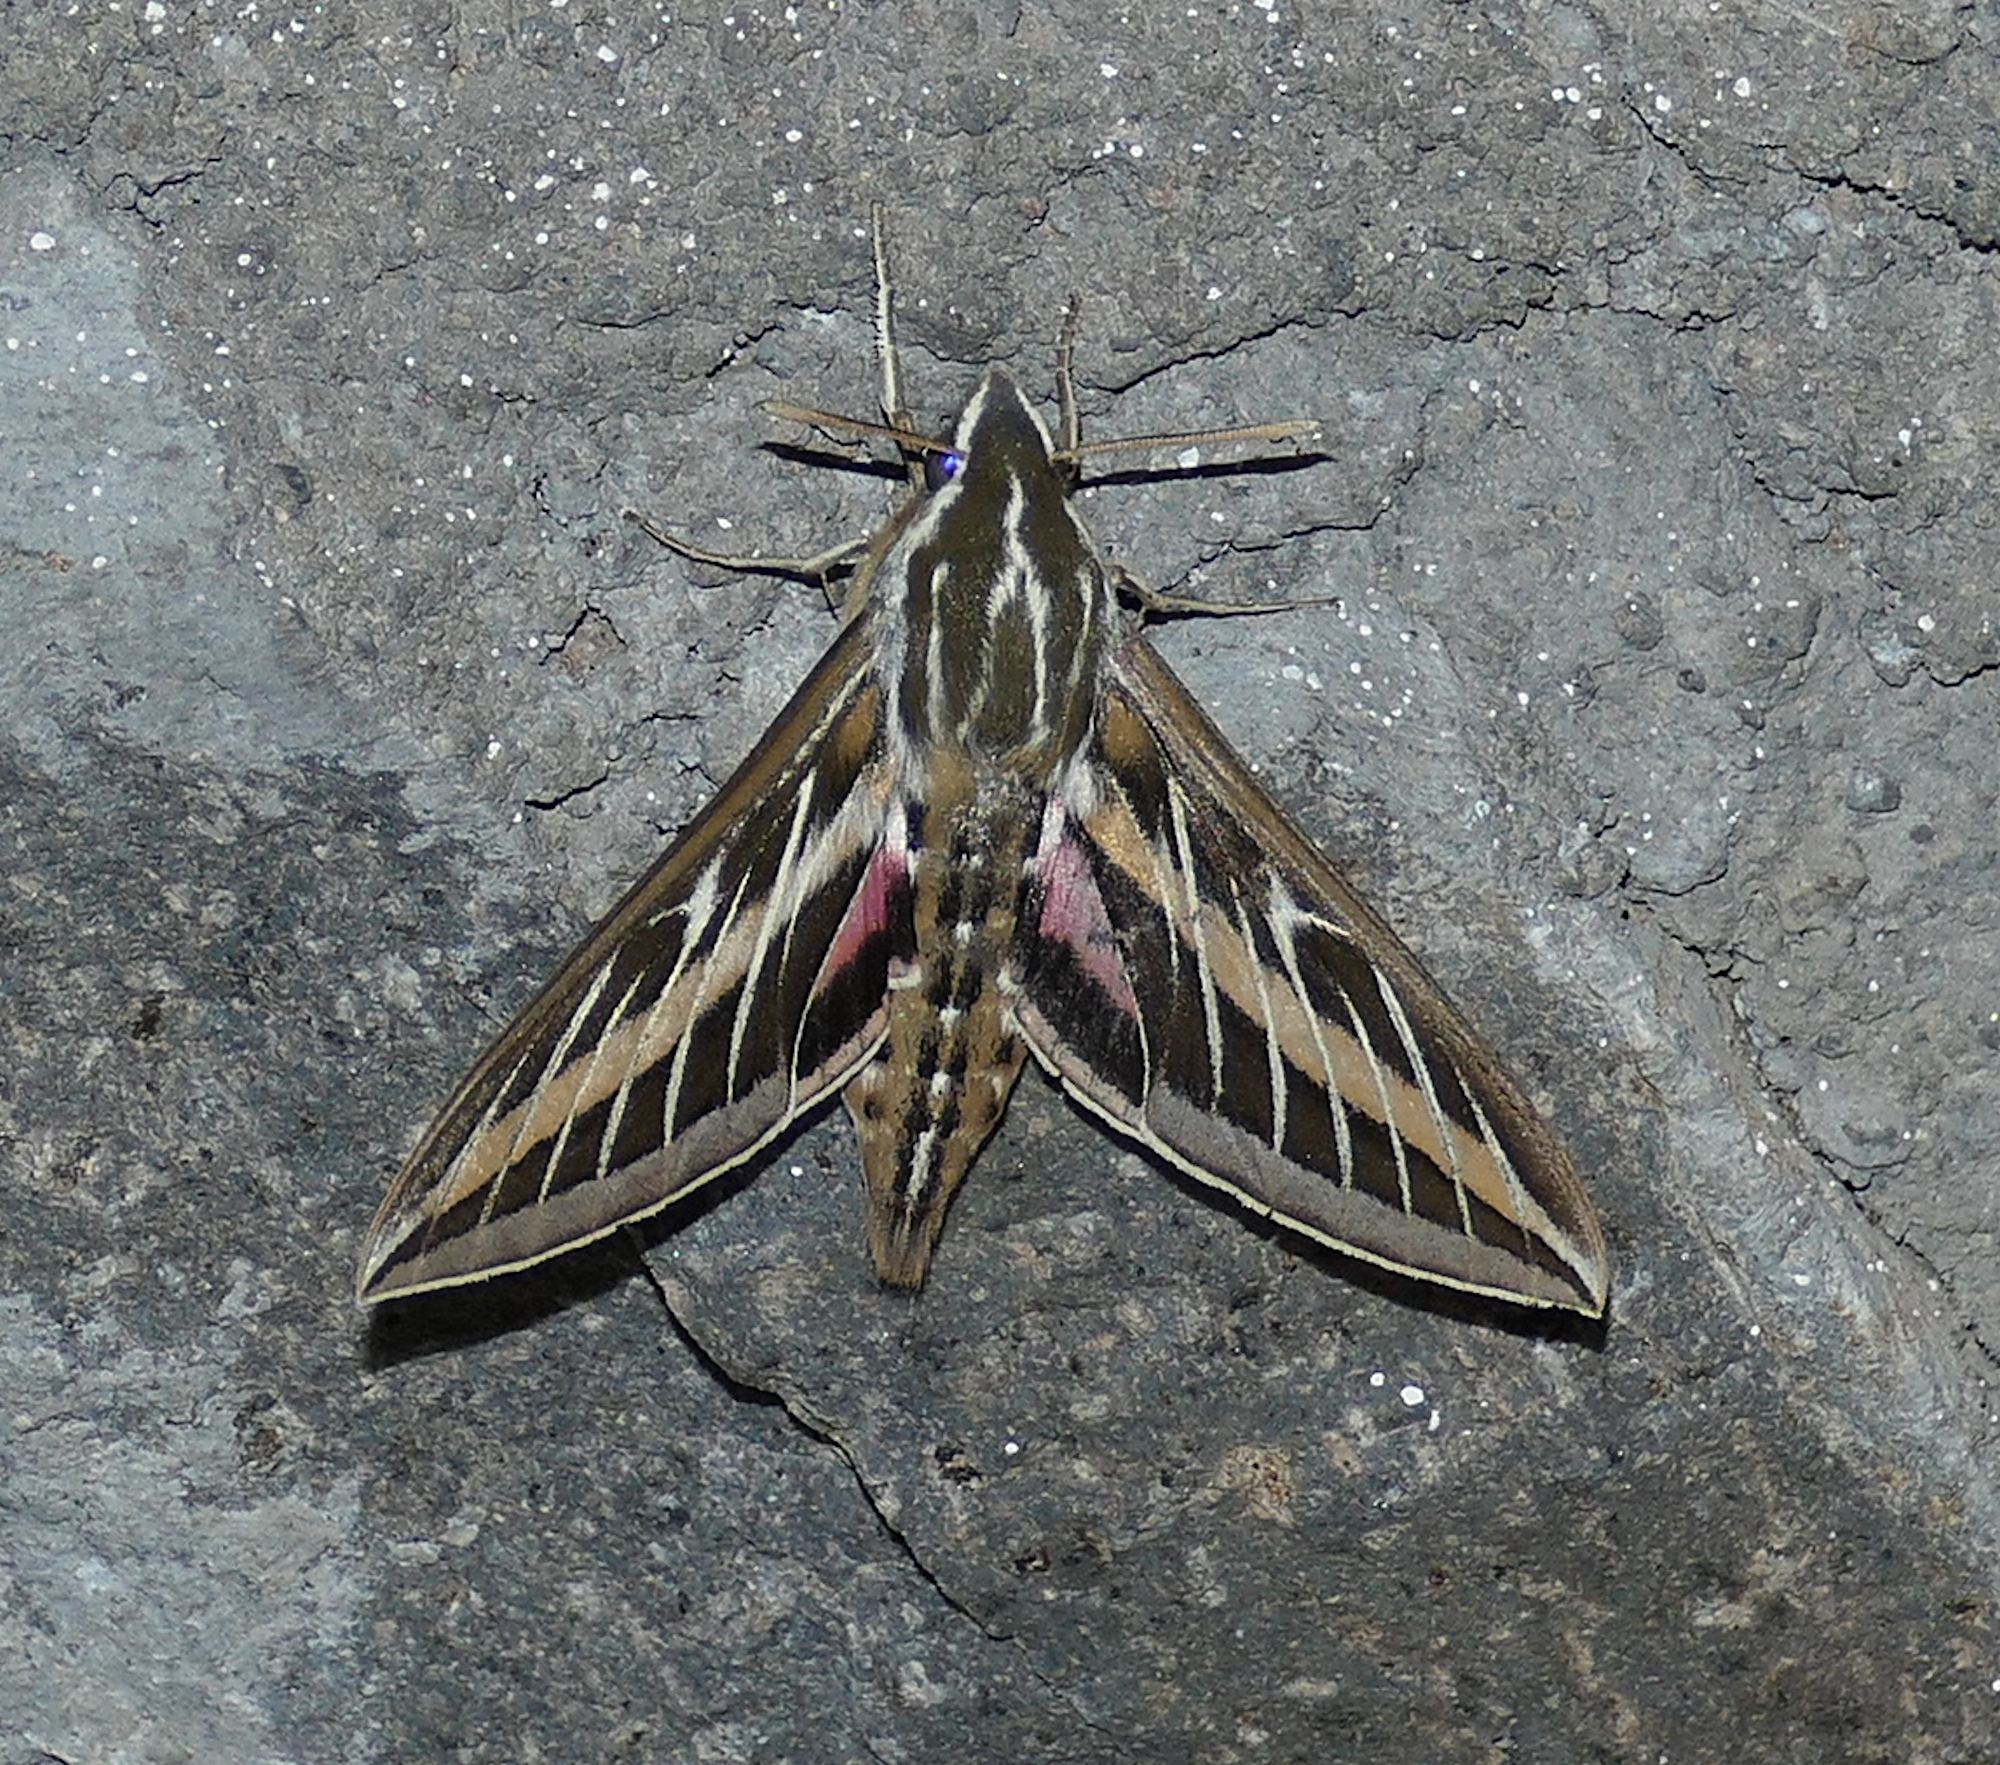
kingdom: Animalia
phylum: Arthropoda
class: Insecta
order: Lepidoptera
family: Sphingidae
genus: Hyles
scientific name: Hyles lineata
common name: White-lined sphinx
